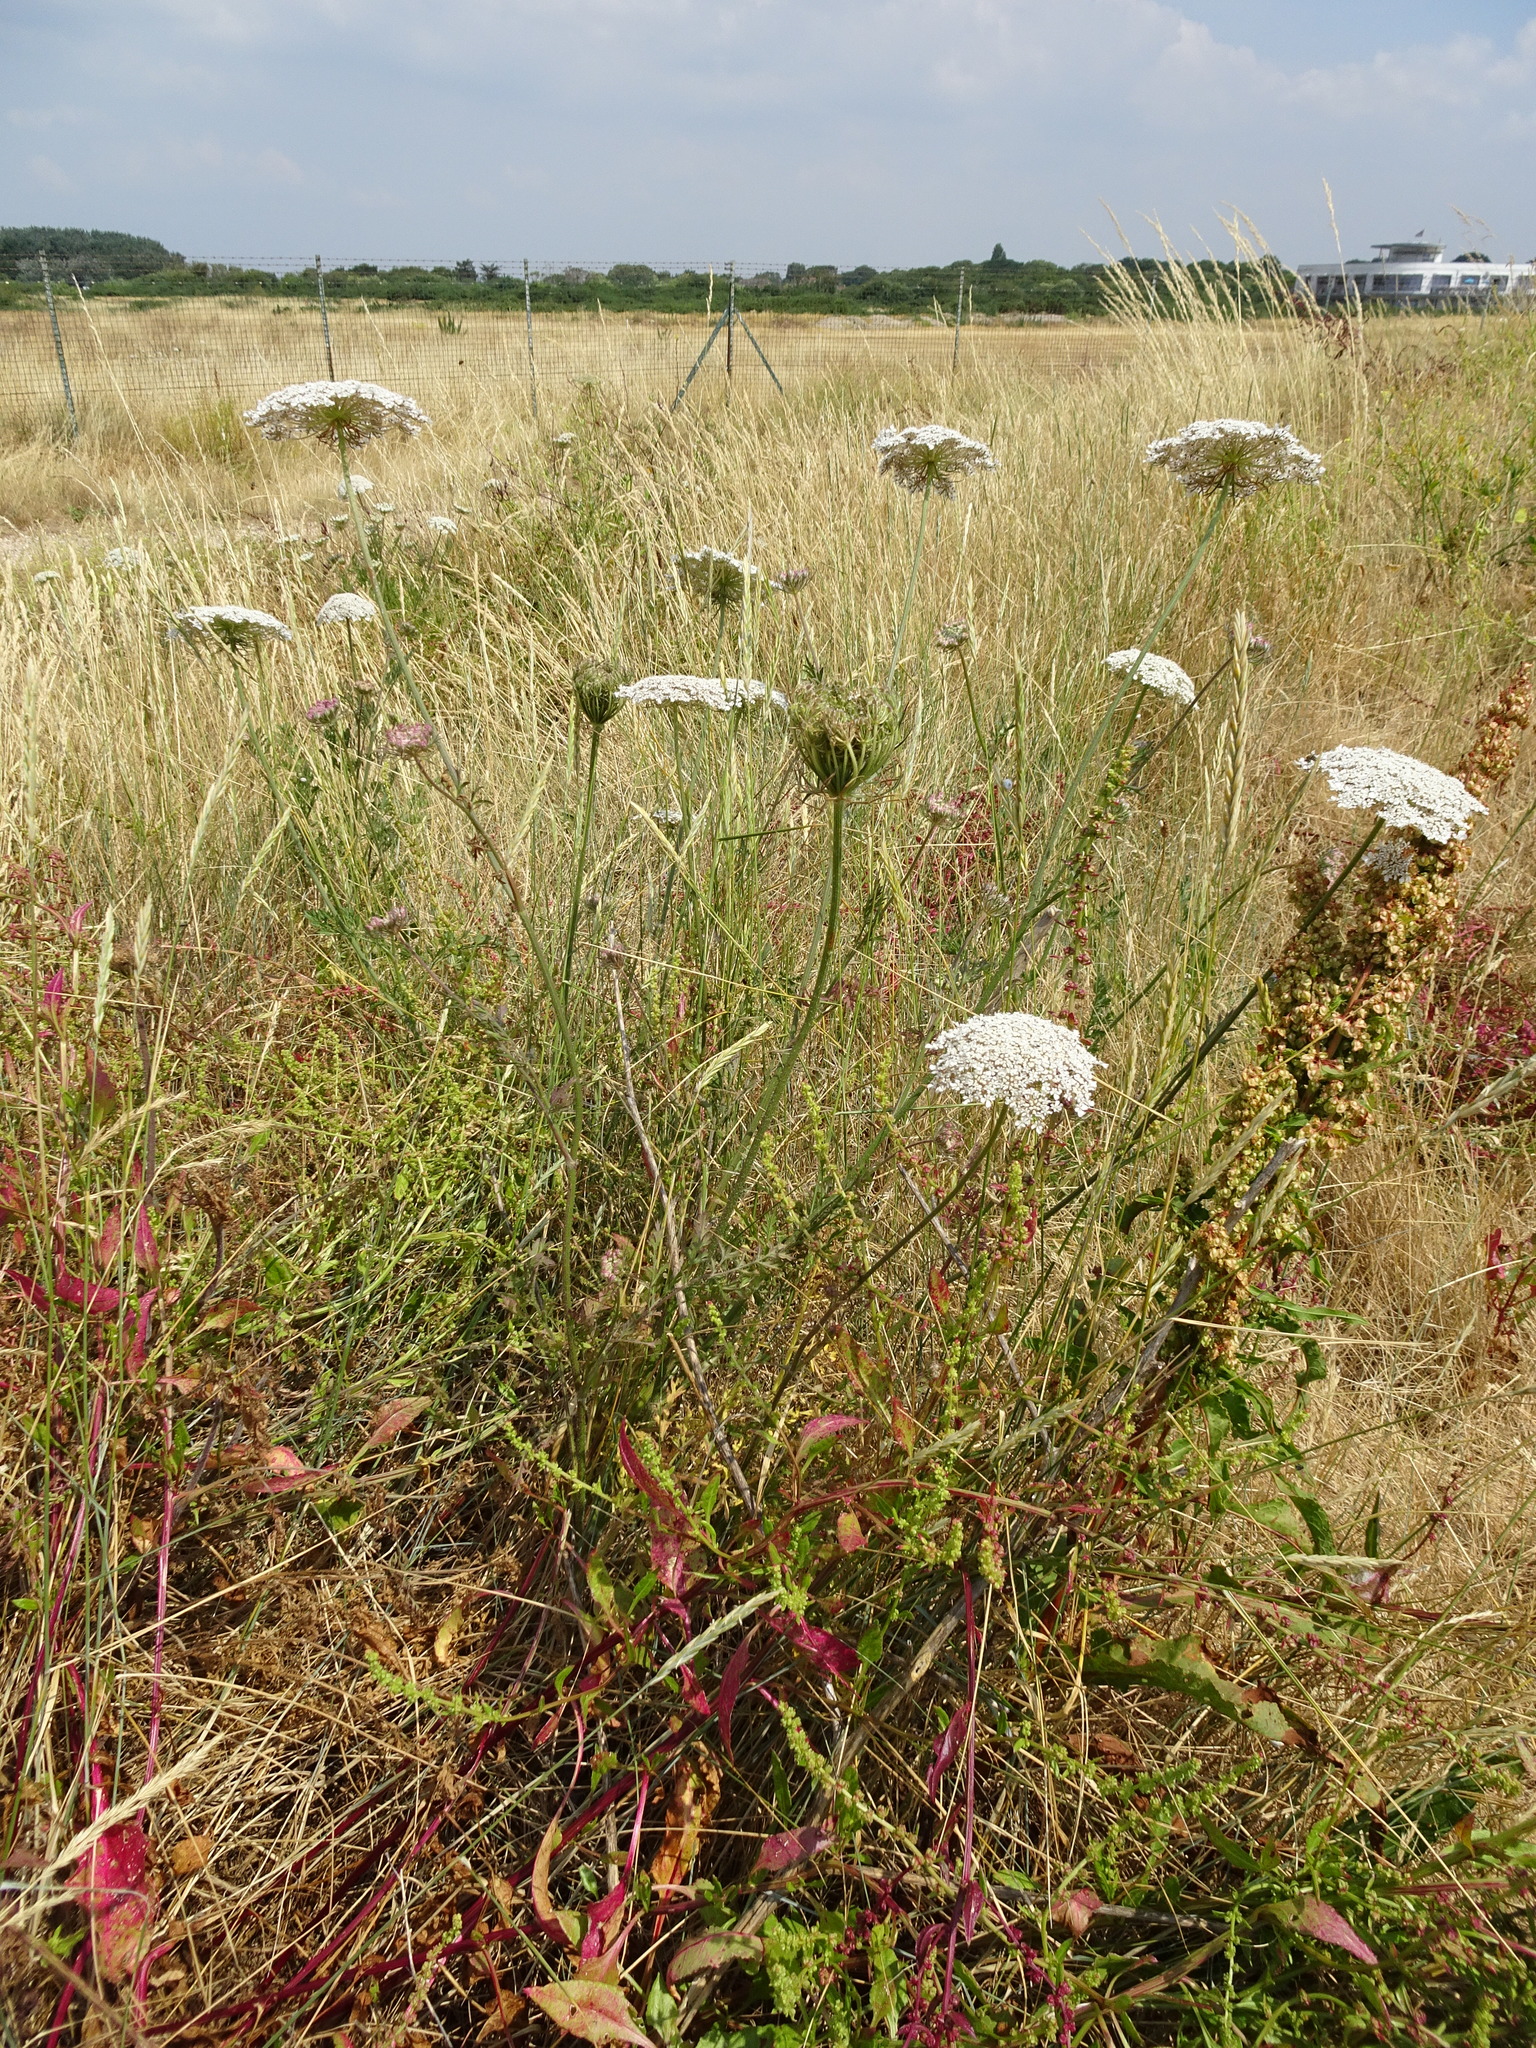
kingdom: Plantae
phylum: Tracheophyta
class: Magnoliopsida
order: Apiales
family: Apiaceae
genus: Daucus
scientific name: Daucus carota
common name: Wild carrot
